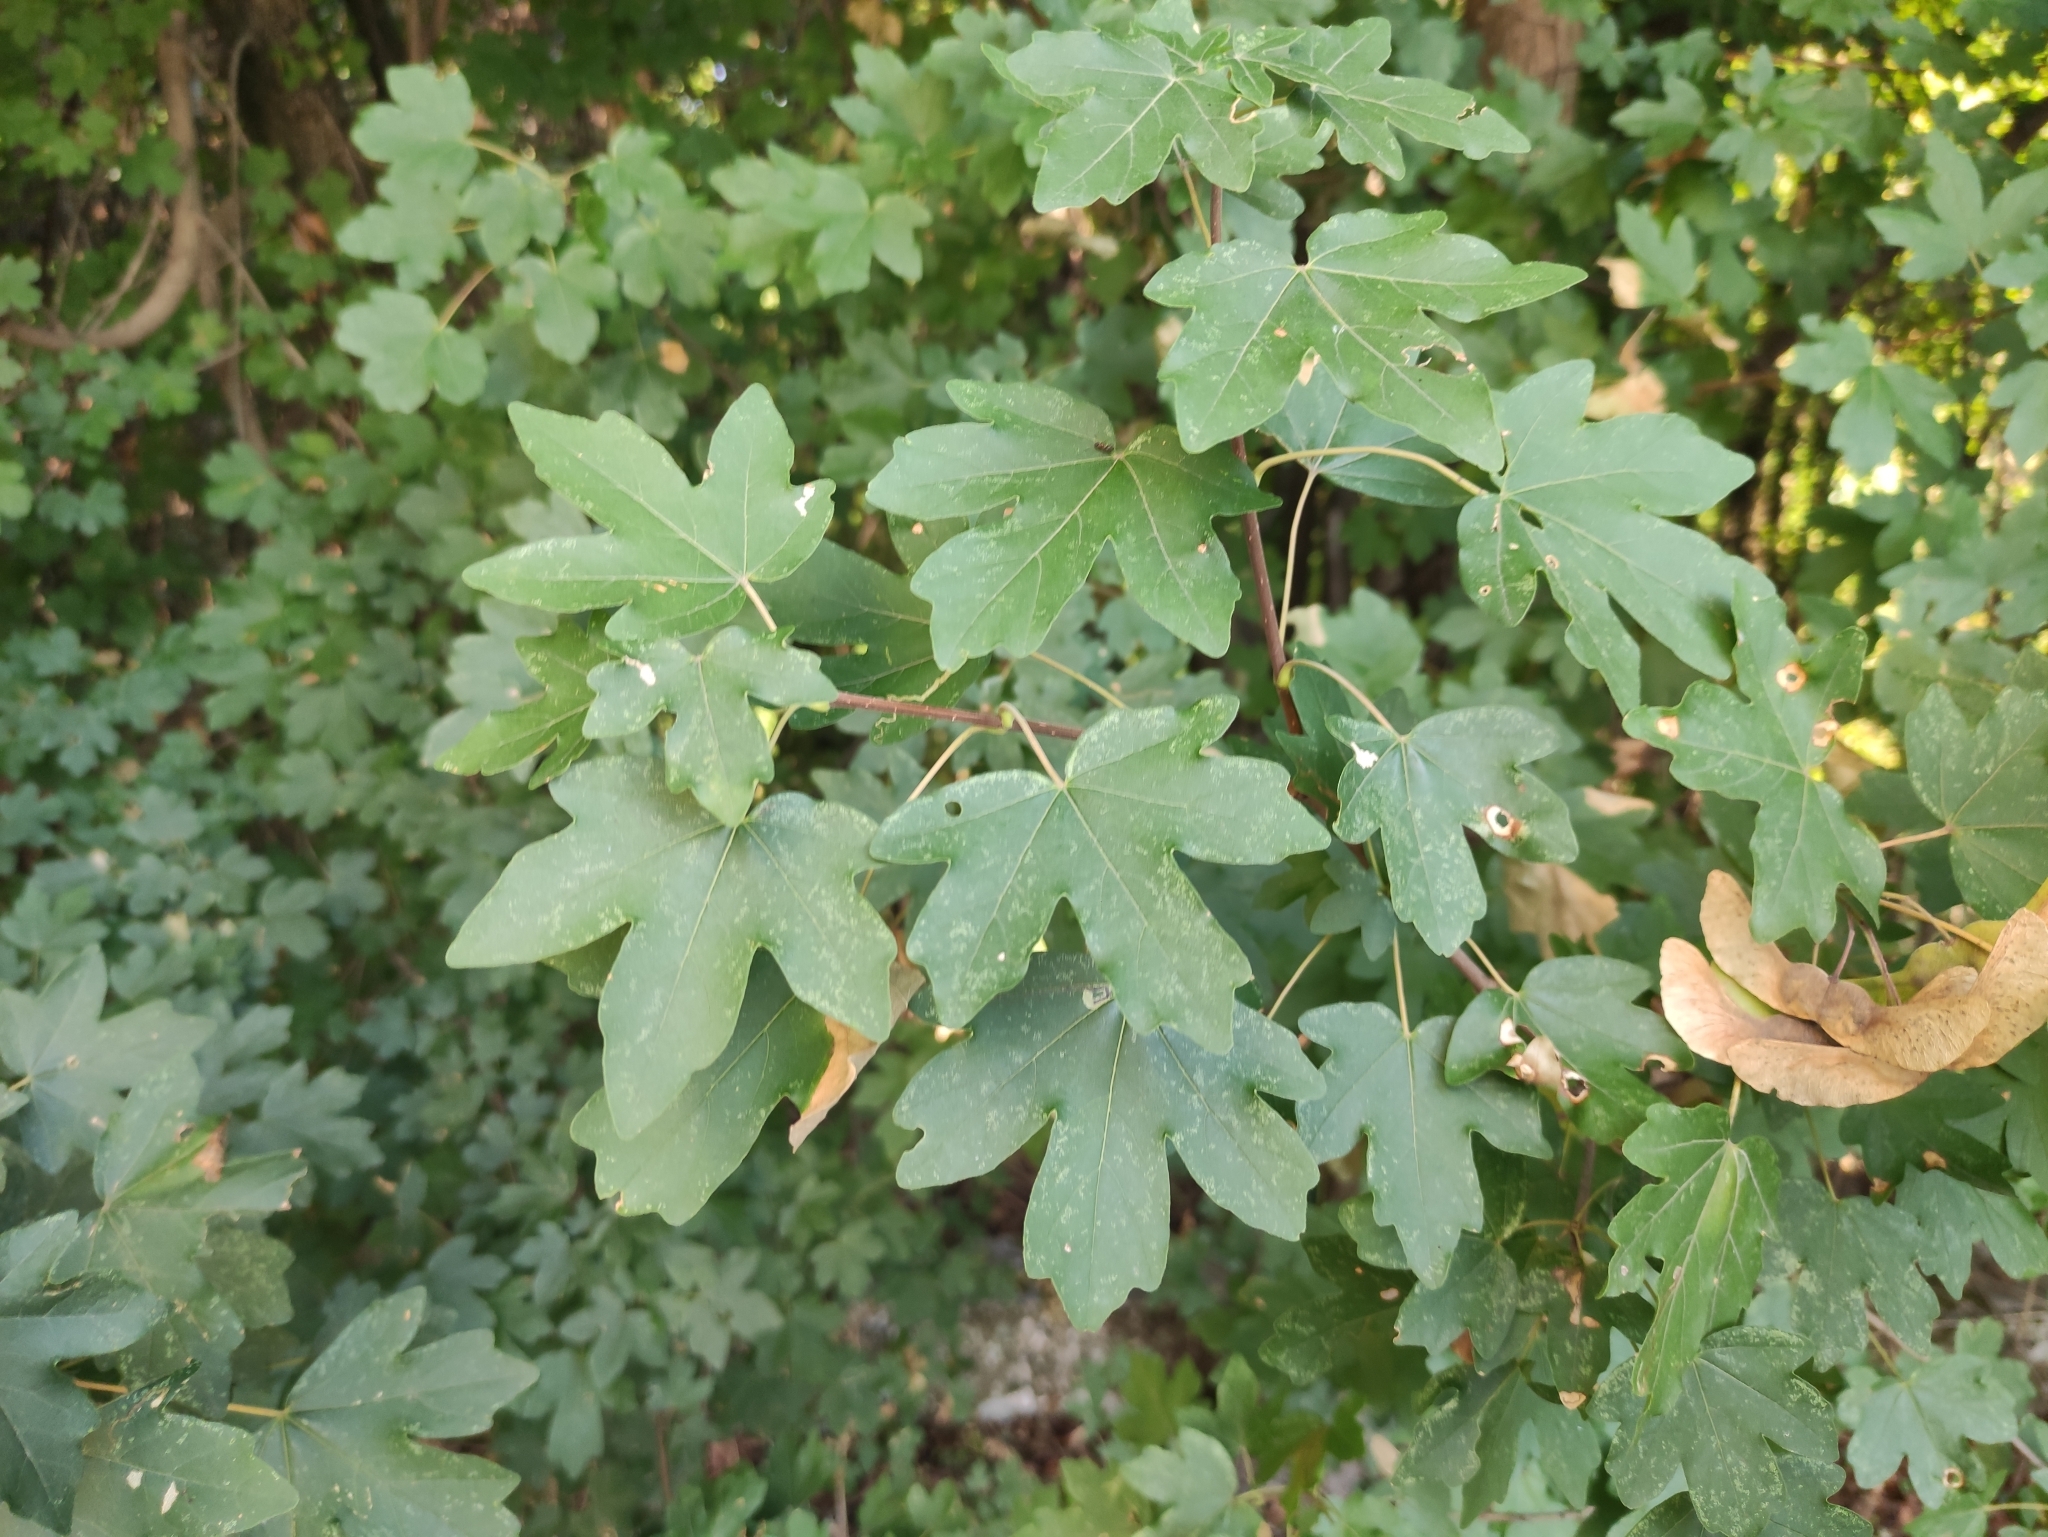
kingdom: Plantae
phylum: Tracheophyta
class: Magnoliopsida
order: Sapindales
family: Sapindaceae
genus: Acer
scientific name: Acer campestre
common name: Field maple
